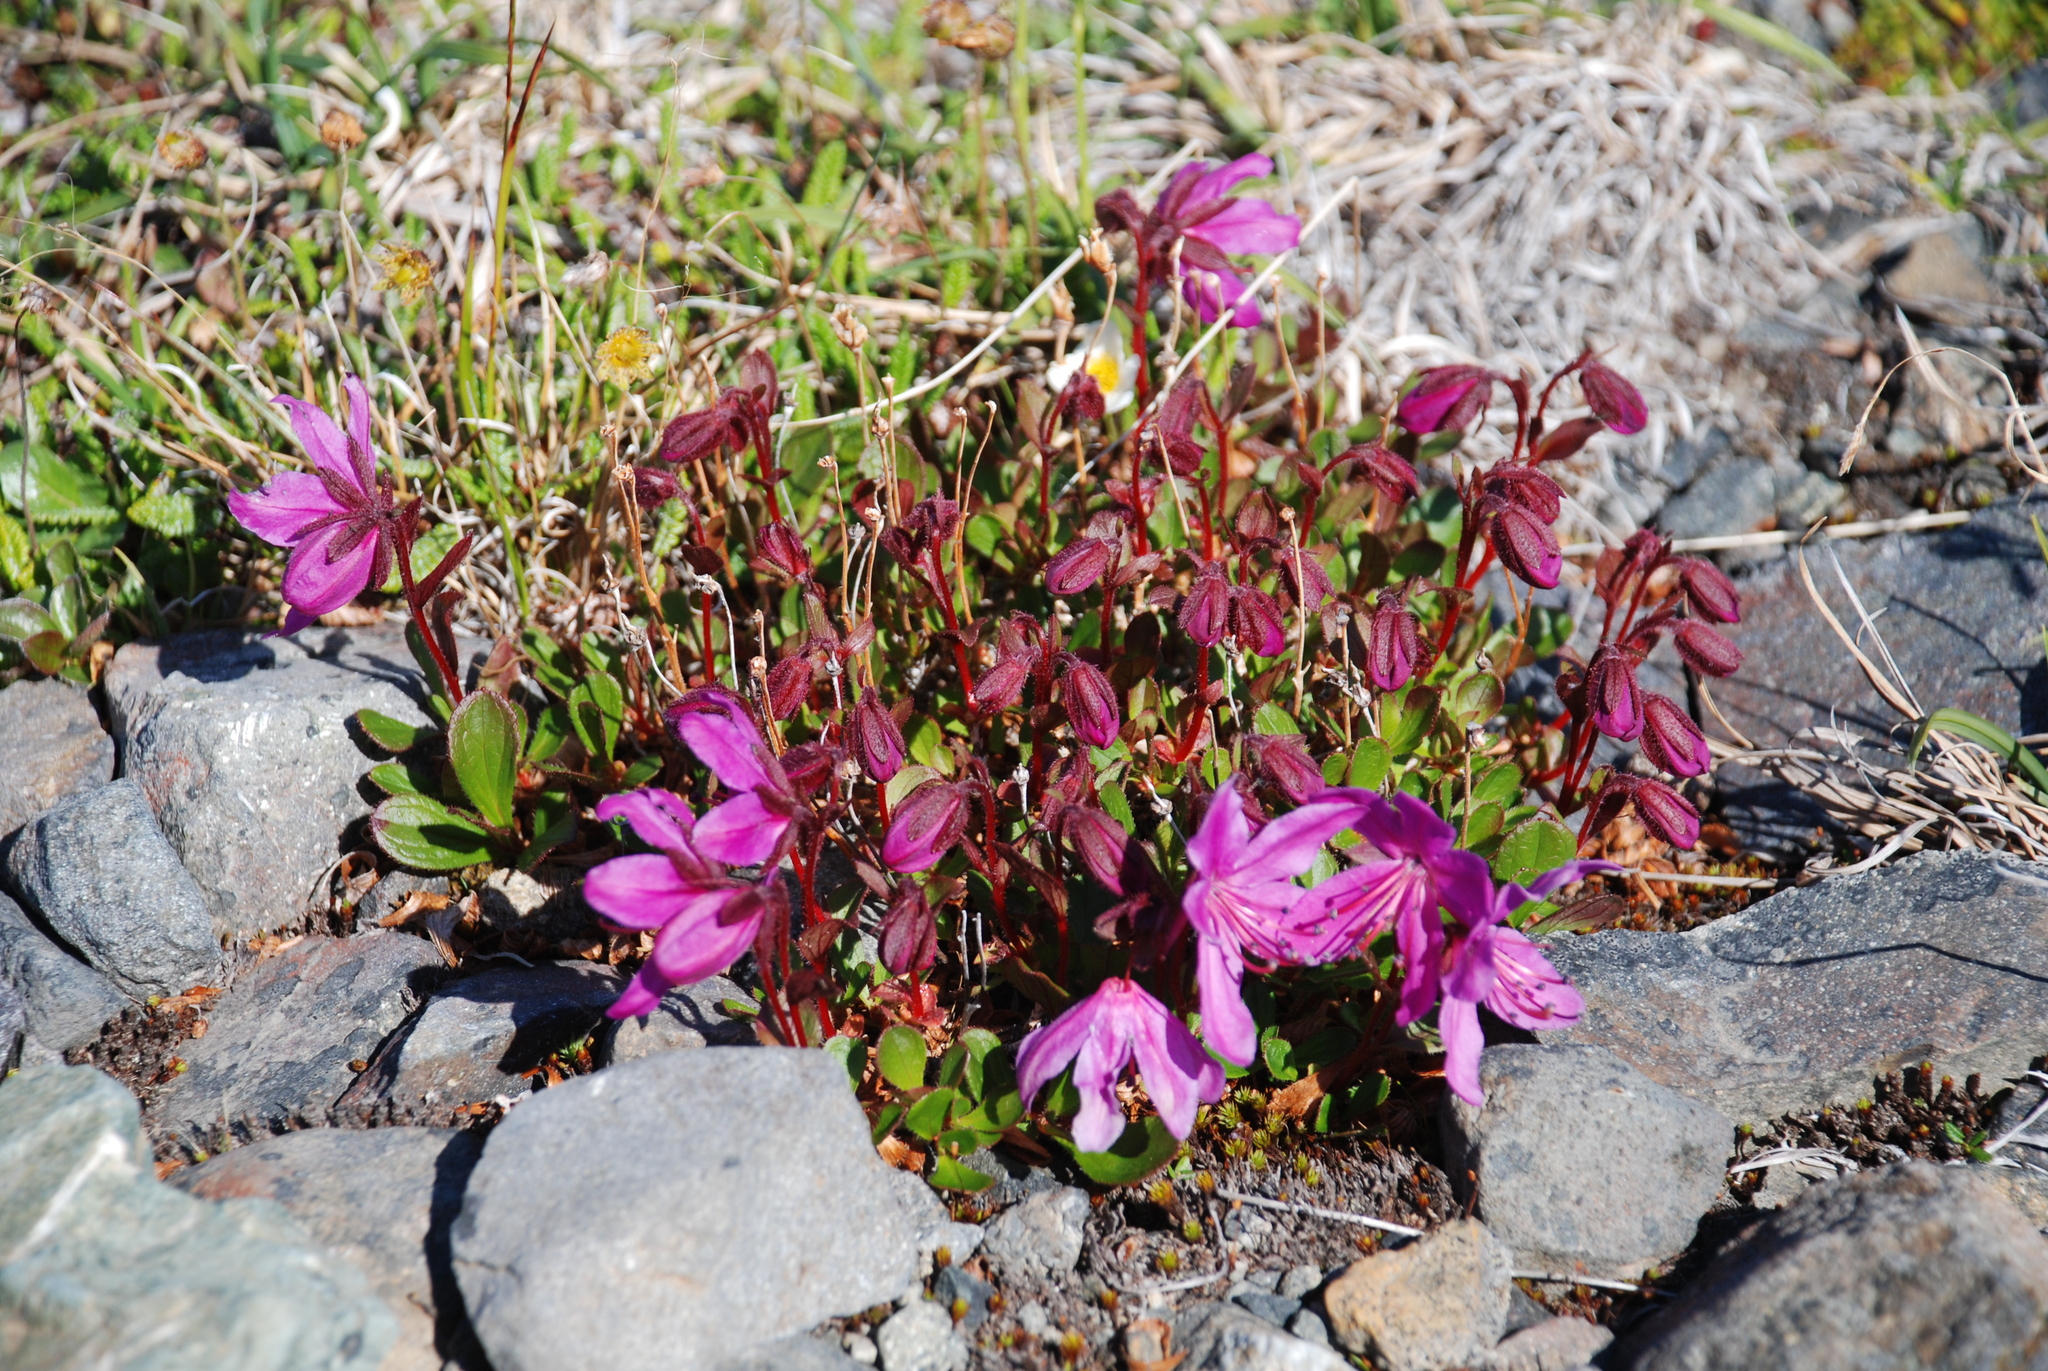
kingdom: Plantae
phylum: Tracheophyta
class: Magnoliopsida
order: Ericales
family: Ericaceae
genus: Rhododendron
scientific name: Rhododendron camtschaticum
